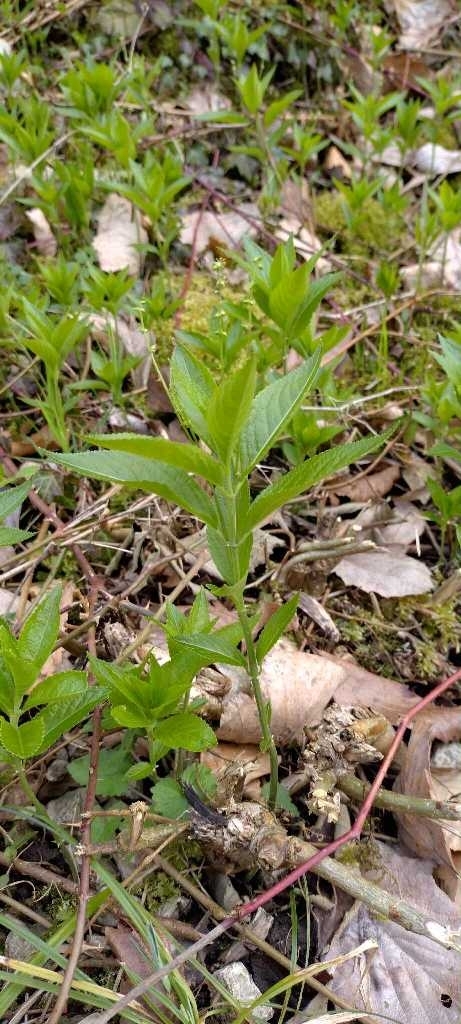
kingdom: Plantae
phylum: Tracheophyta
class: Magnoliopsida
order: Malpighiales
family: Euphorbiaceae
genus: Mercurialis
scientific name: Mercurialis perennis
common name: Dog mercury
